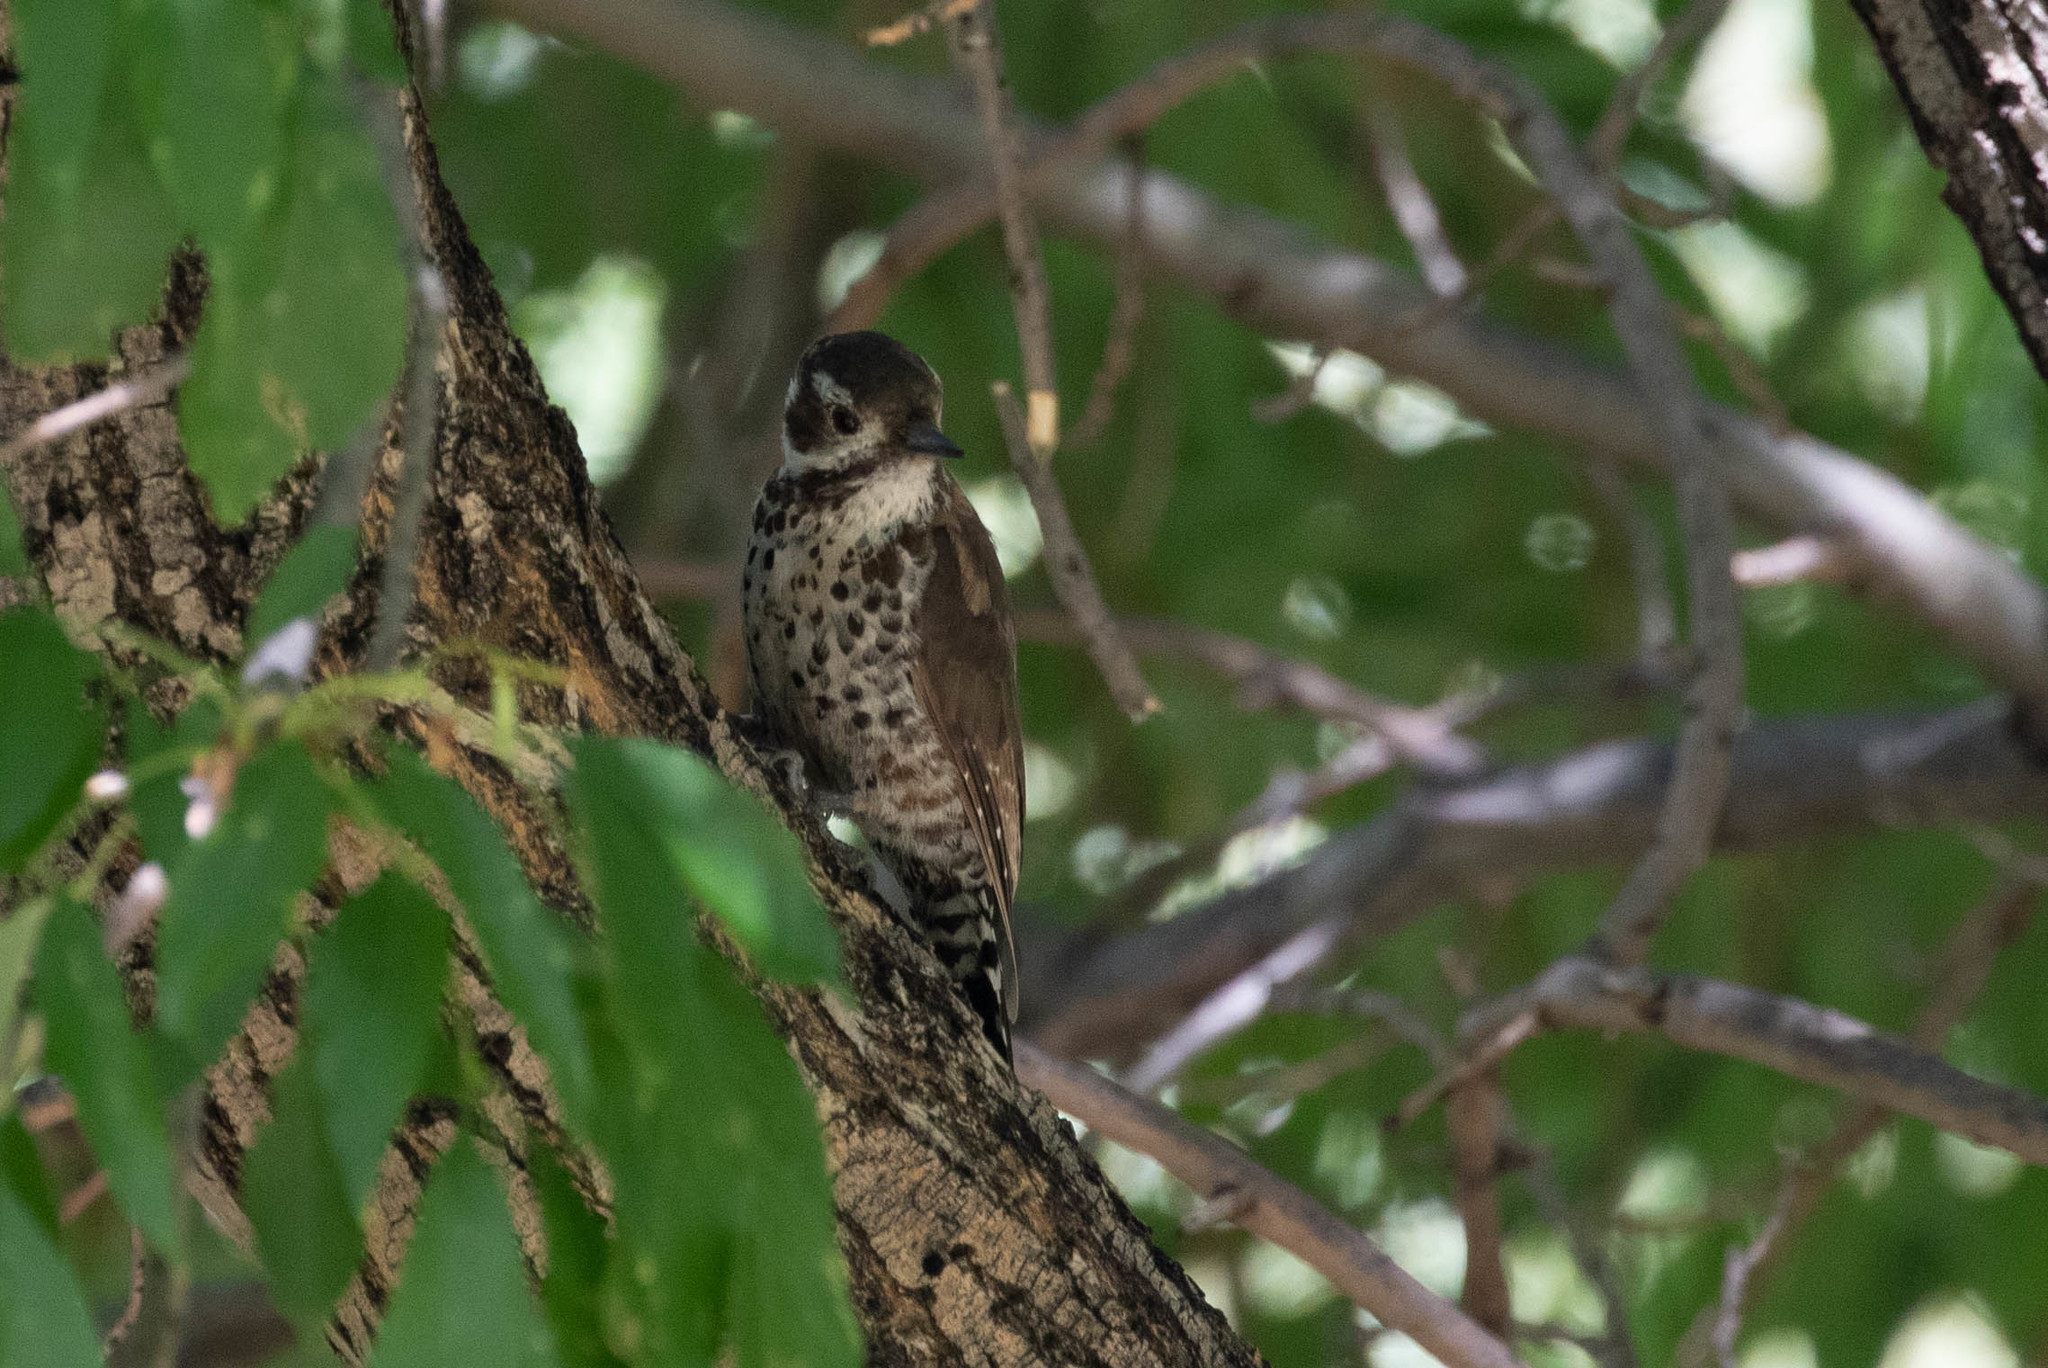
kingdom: Animalia
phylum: Chordata
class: Aves
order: Piciformes
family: Picidae
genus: Leuconotopicus
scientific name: Leuconotopicus arizonae
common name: Arizona woodpecker
